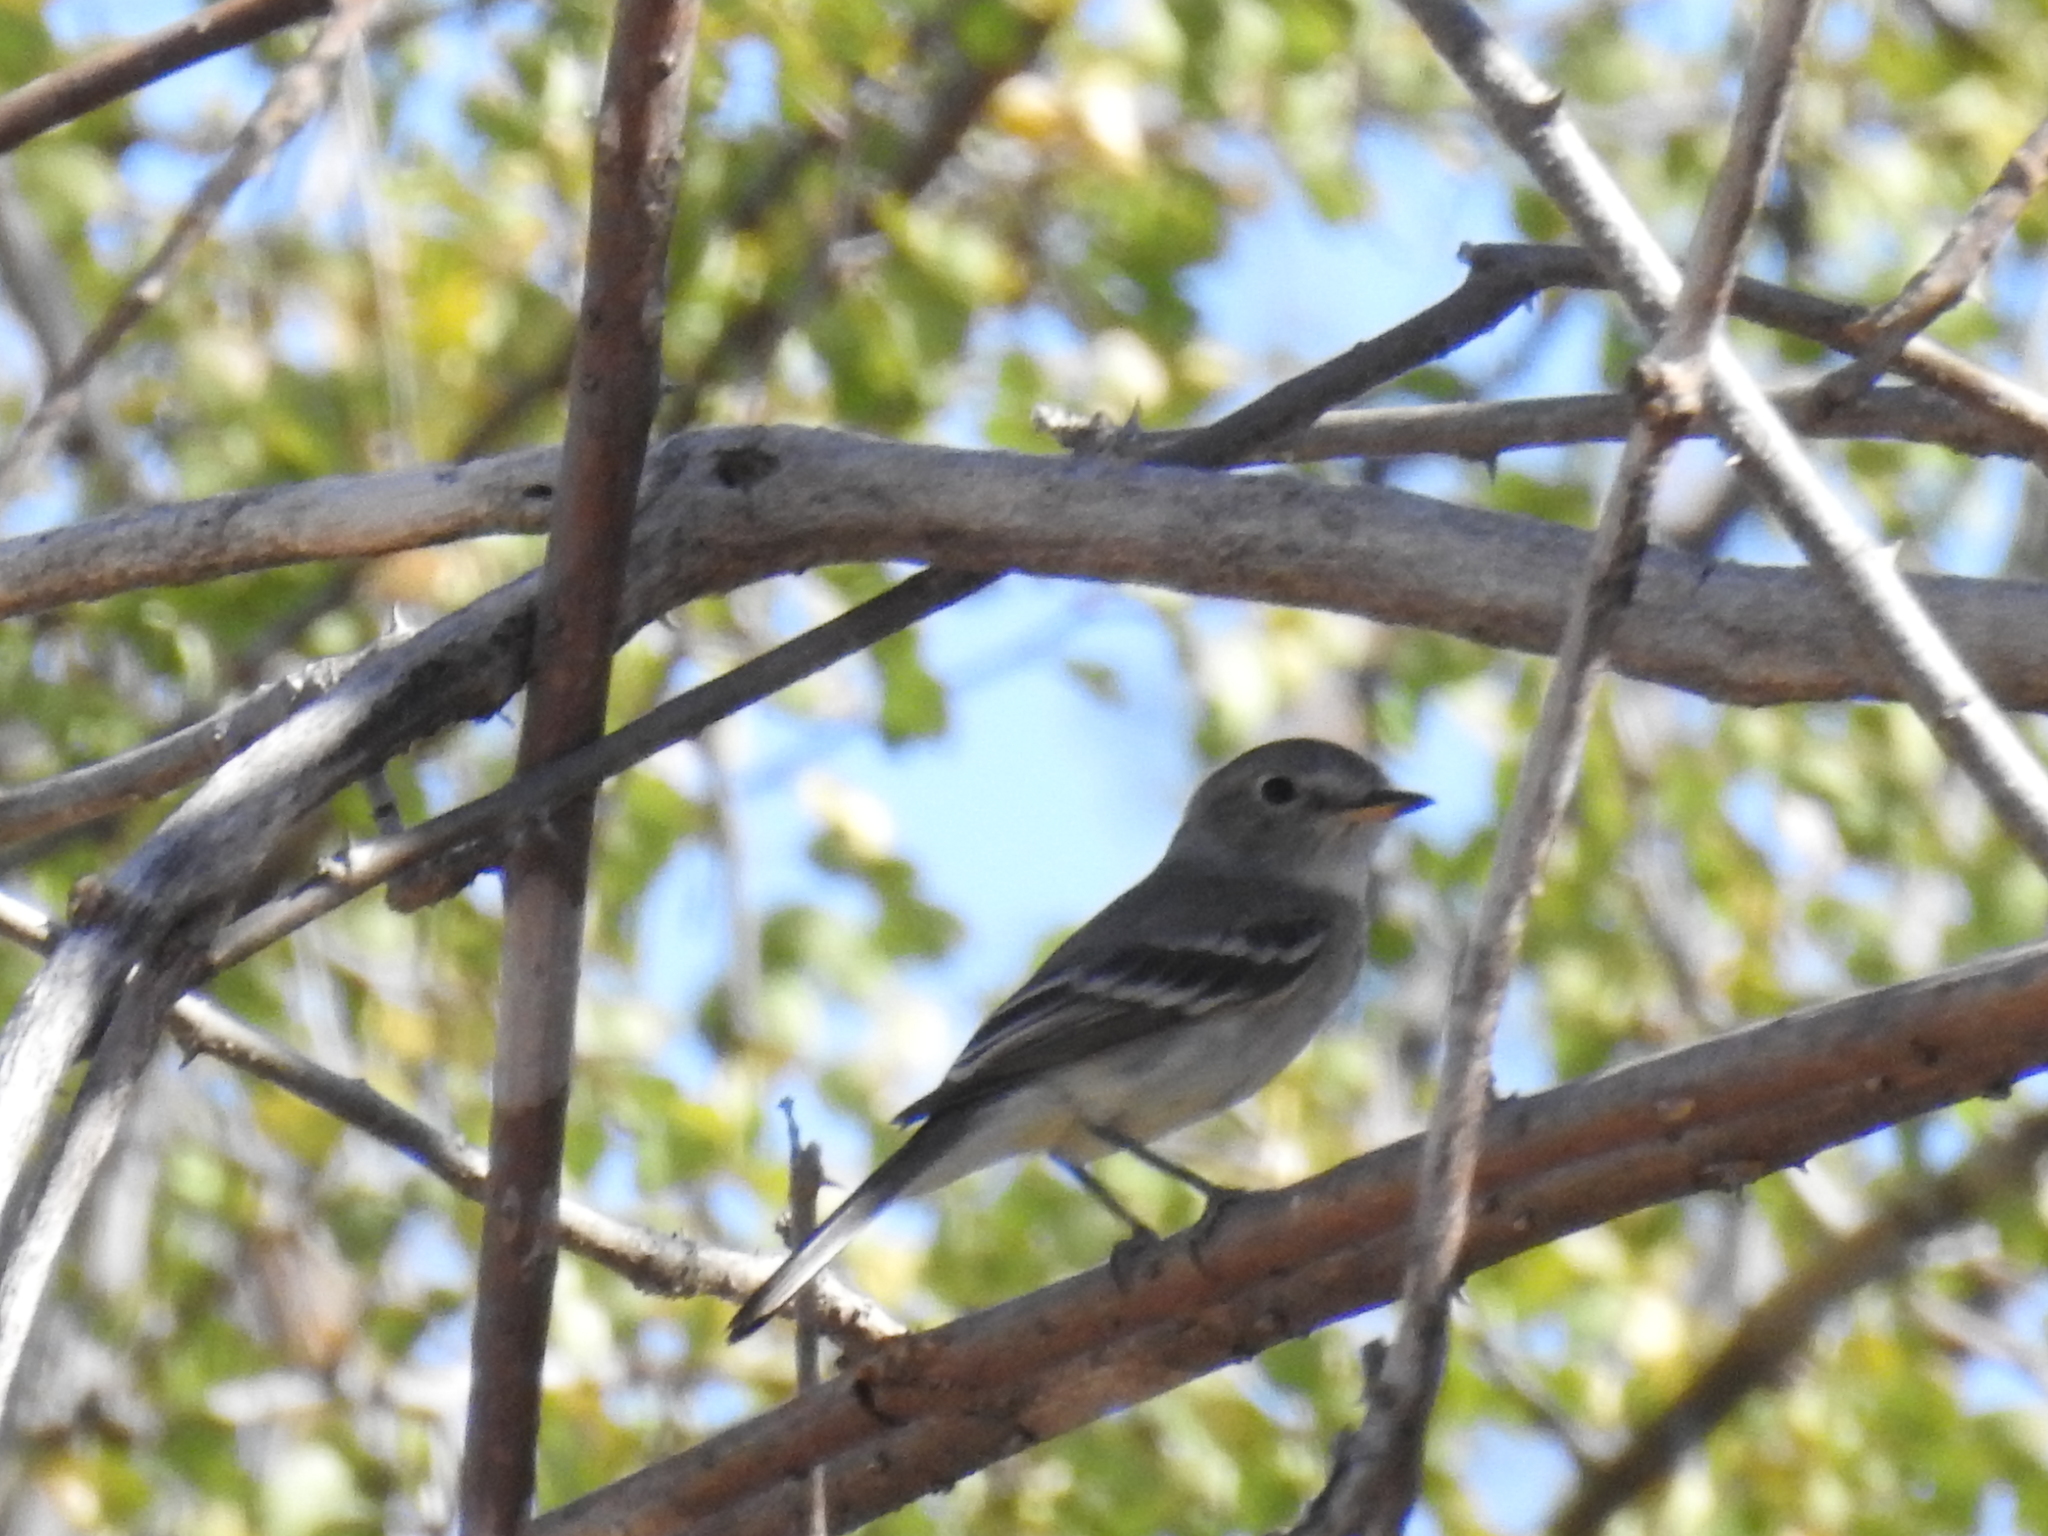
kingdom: Animalia
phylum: Chordata
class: Aves
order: Passeriformes
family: Tyrannidae
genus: Empidonax
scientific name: Empidonax wrightii
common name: Gray flycatcher
